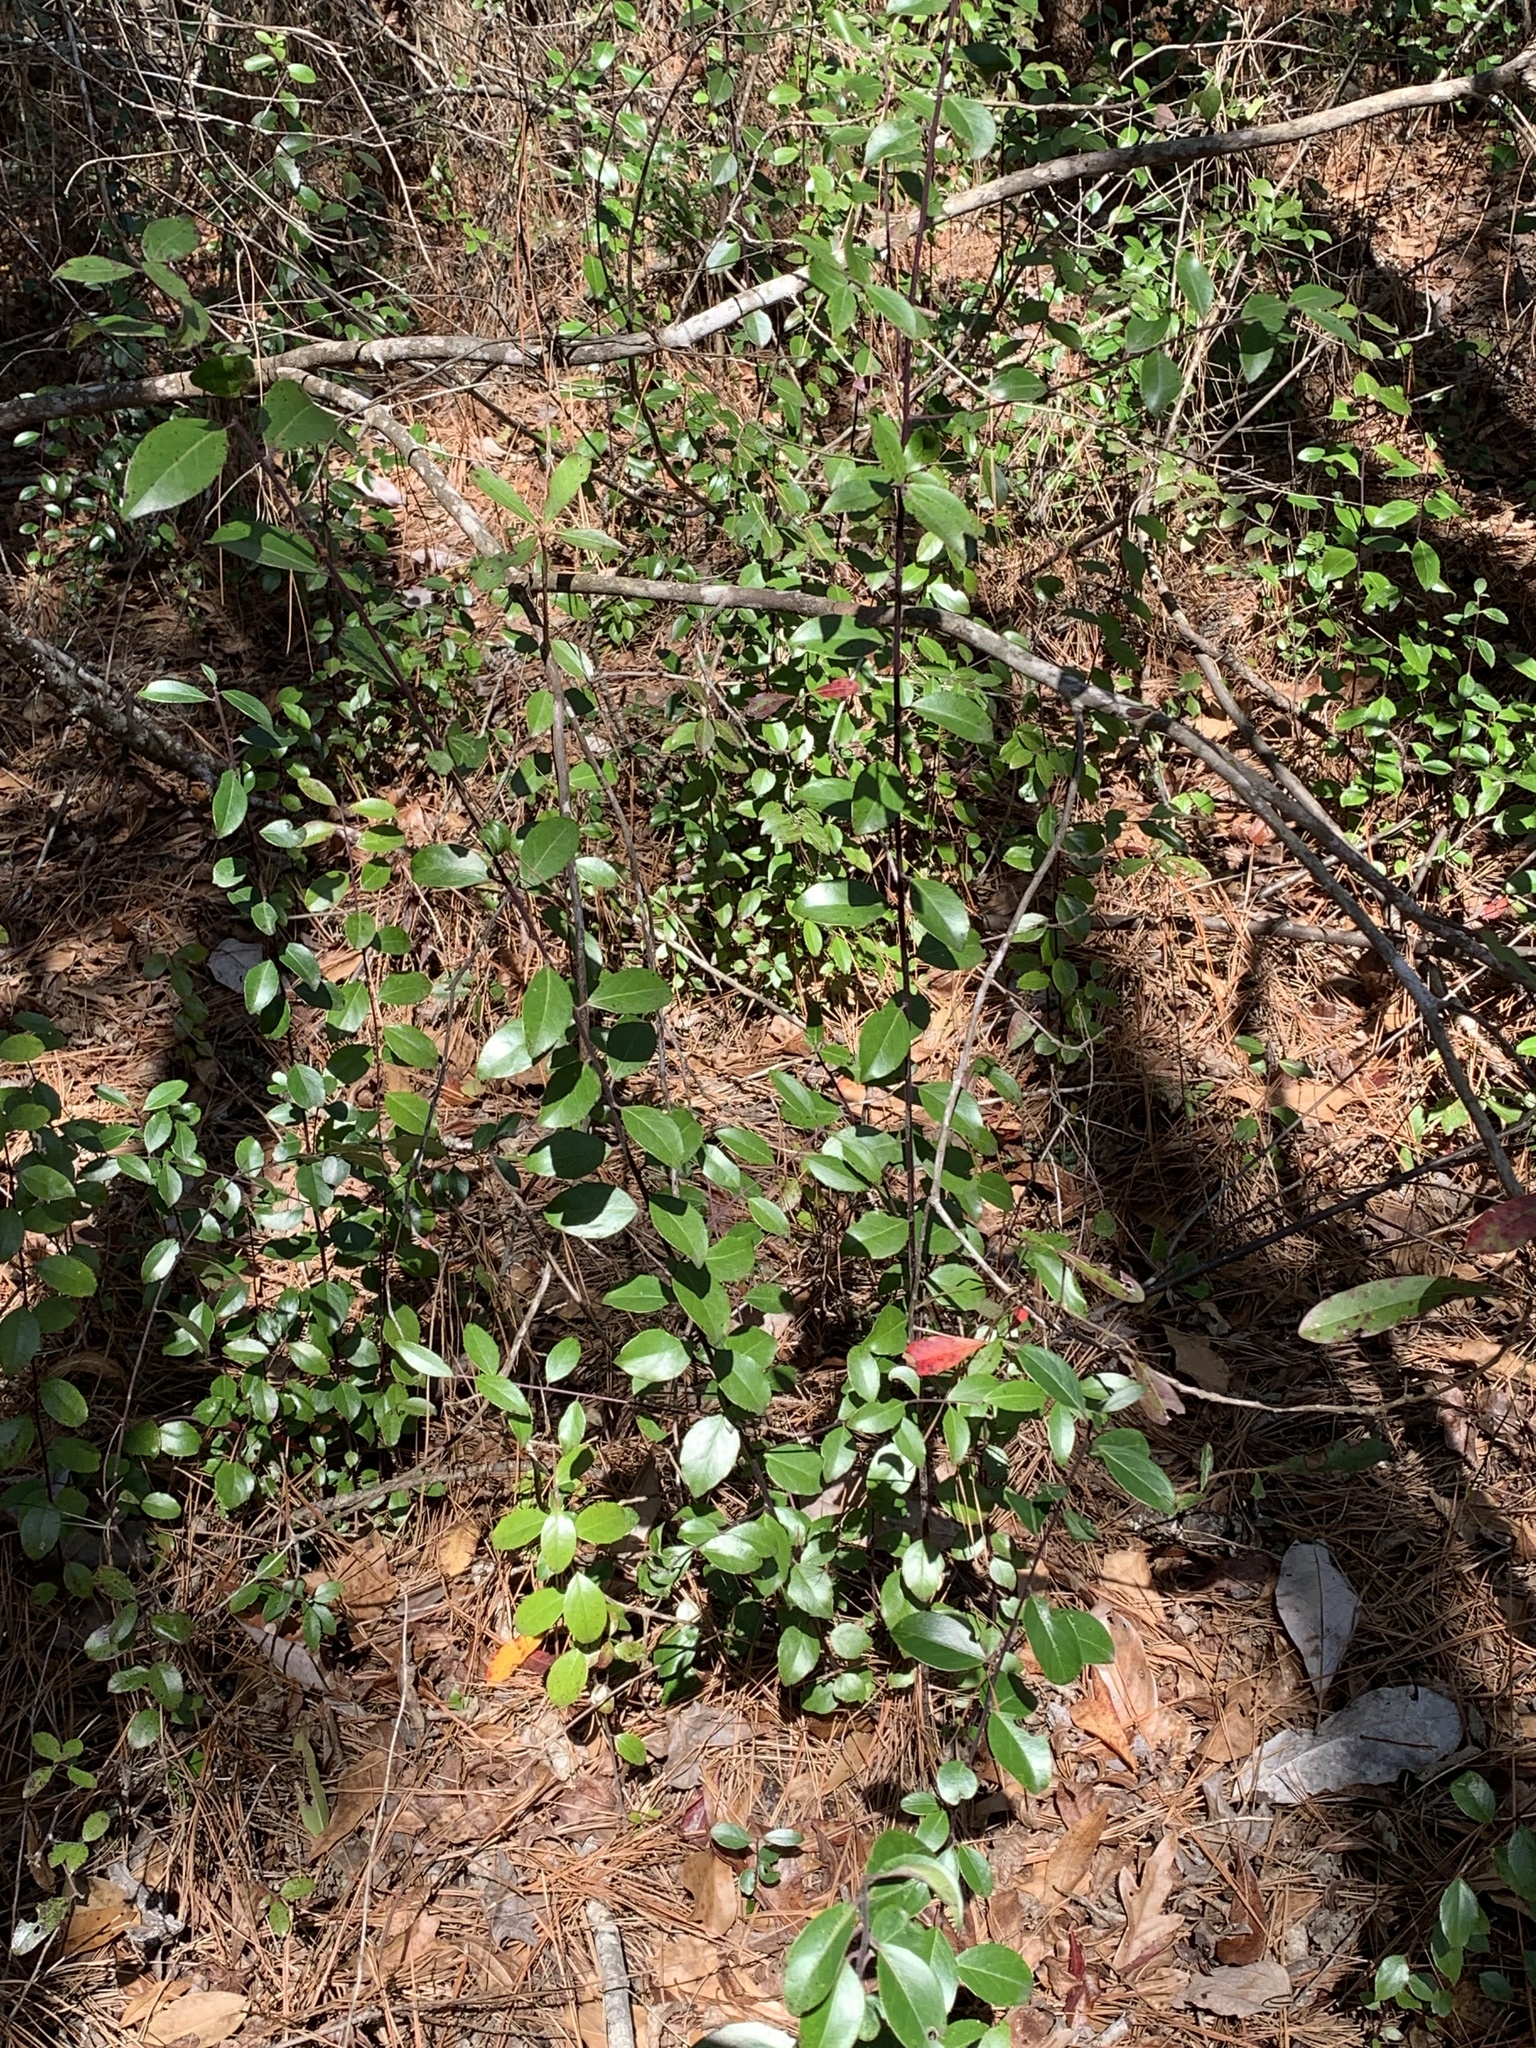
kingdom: Plantae
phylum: Tracheophyta
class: Magnoliopsida
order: Aquifoliales
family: Aquifoliaceae
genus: Ilex
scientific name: Ilex coriacea
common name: Sweet gallberry
